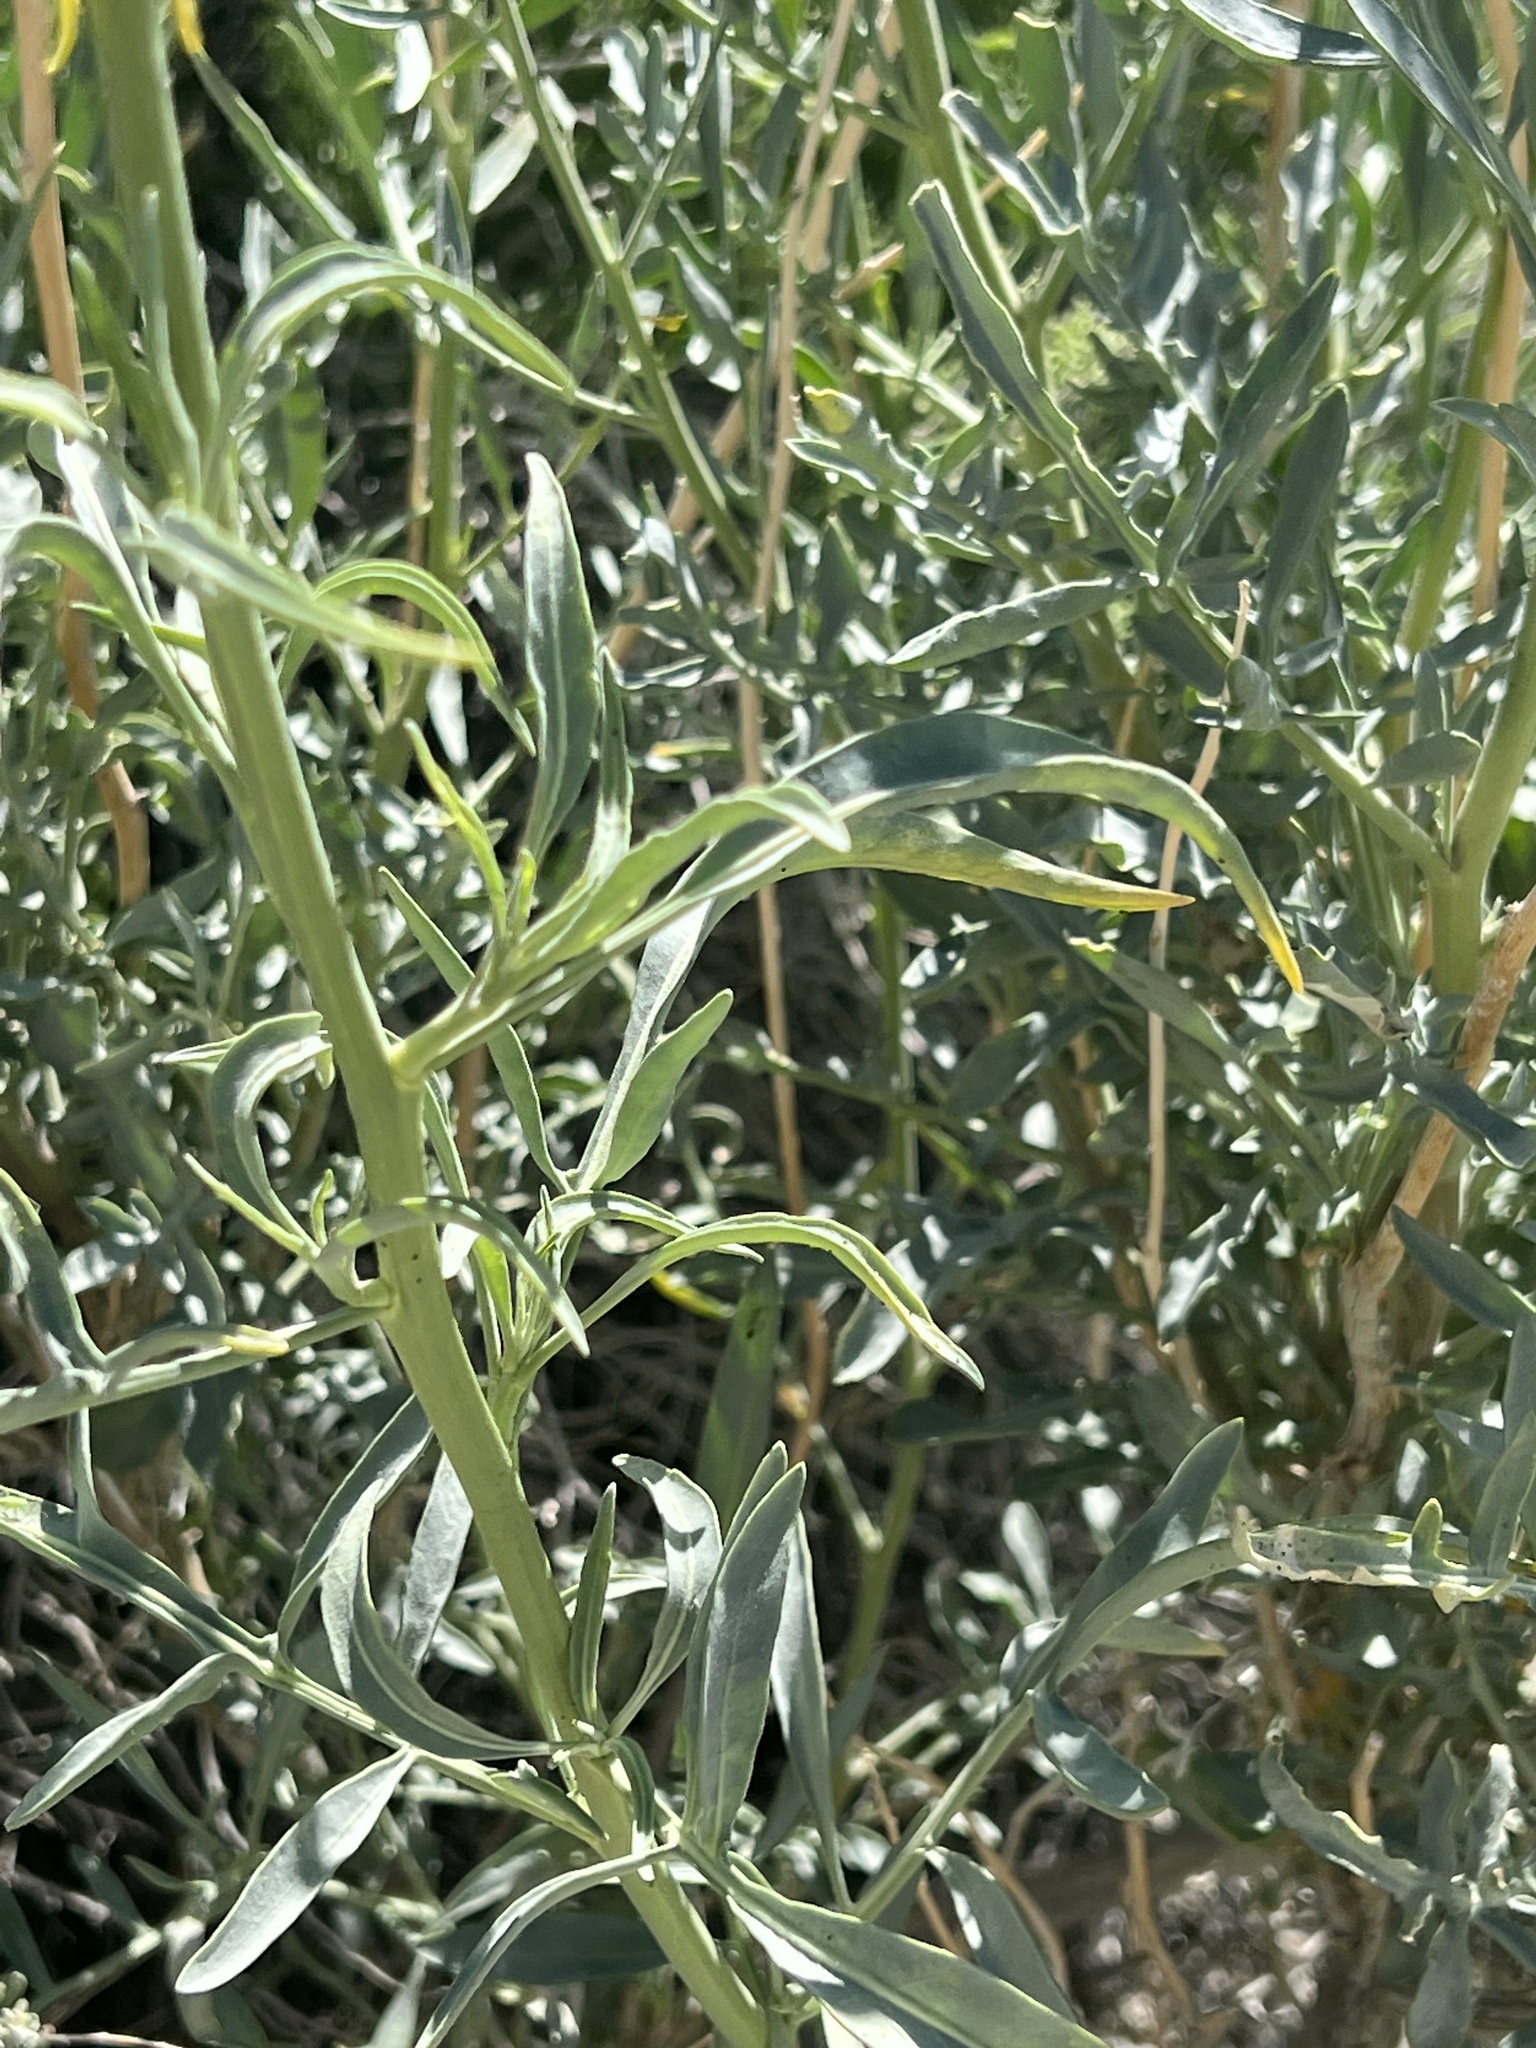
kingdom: Plantae
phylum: Tracheophyta
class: Magnoliopsida
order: Brassicales
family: Brassicaceae
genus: Stanleya
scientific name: Stanleya pinnata
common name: Prince's-plume
